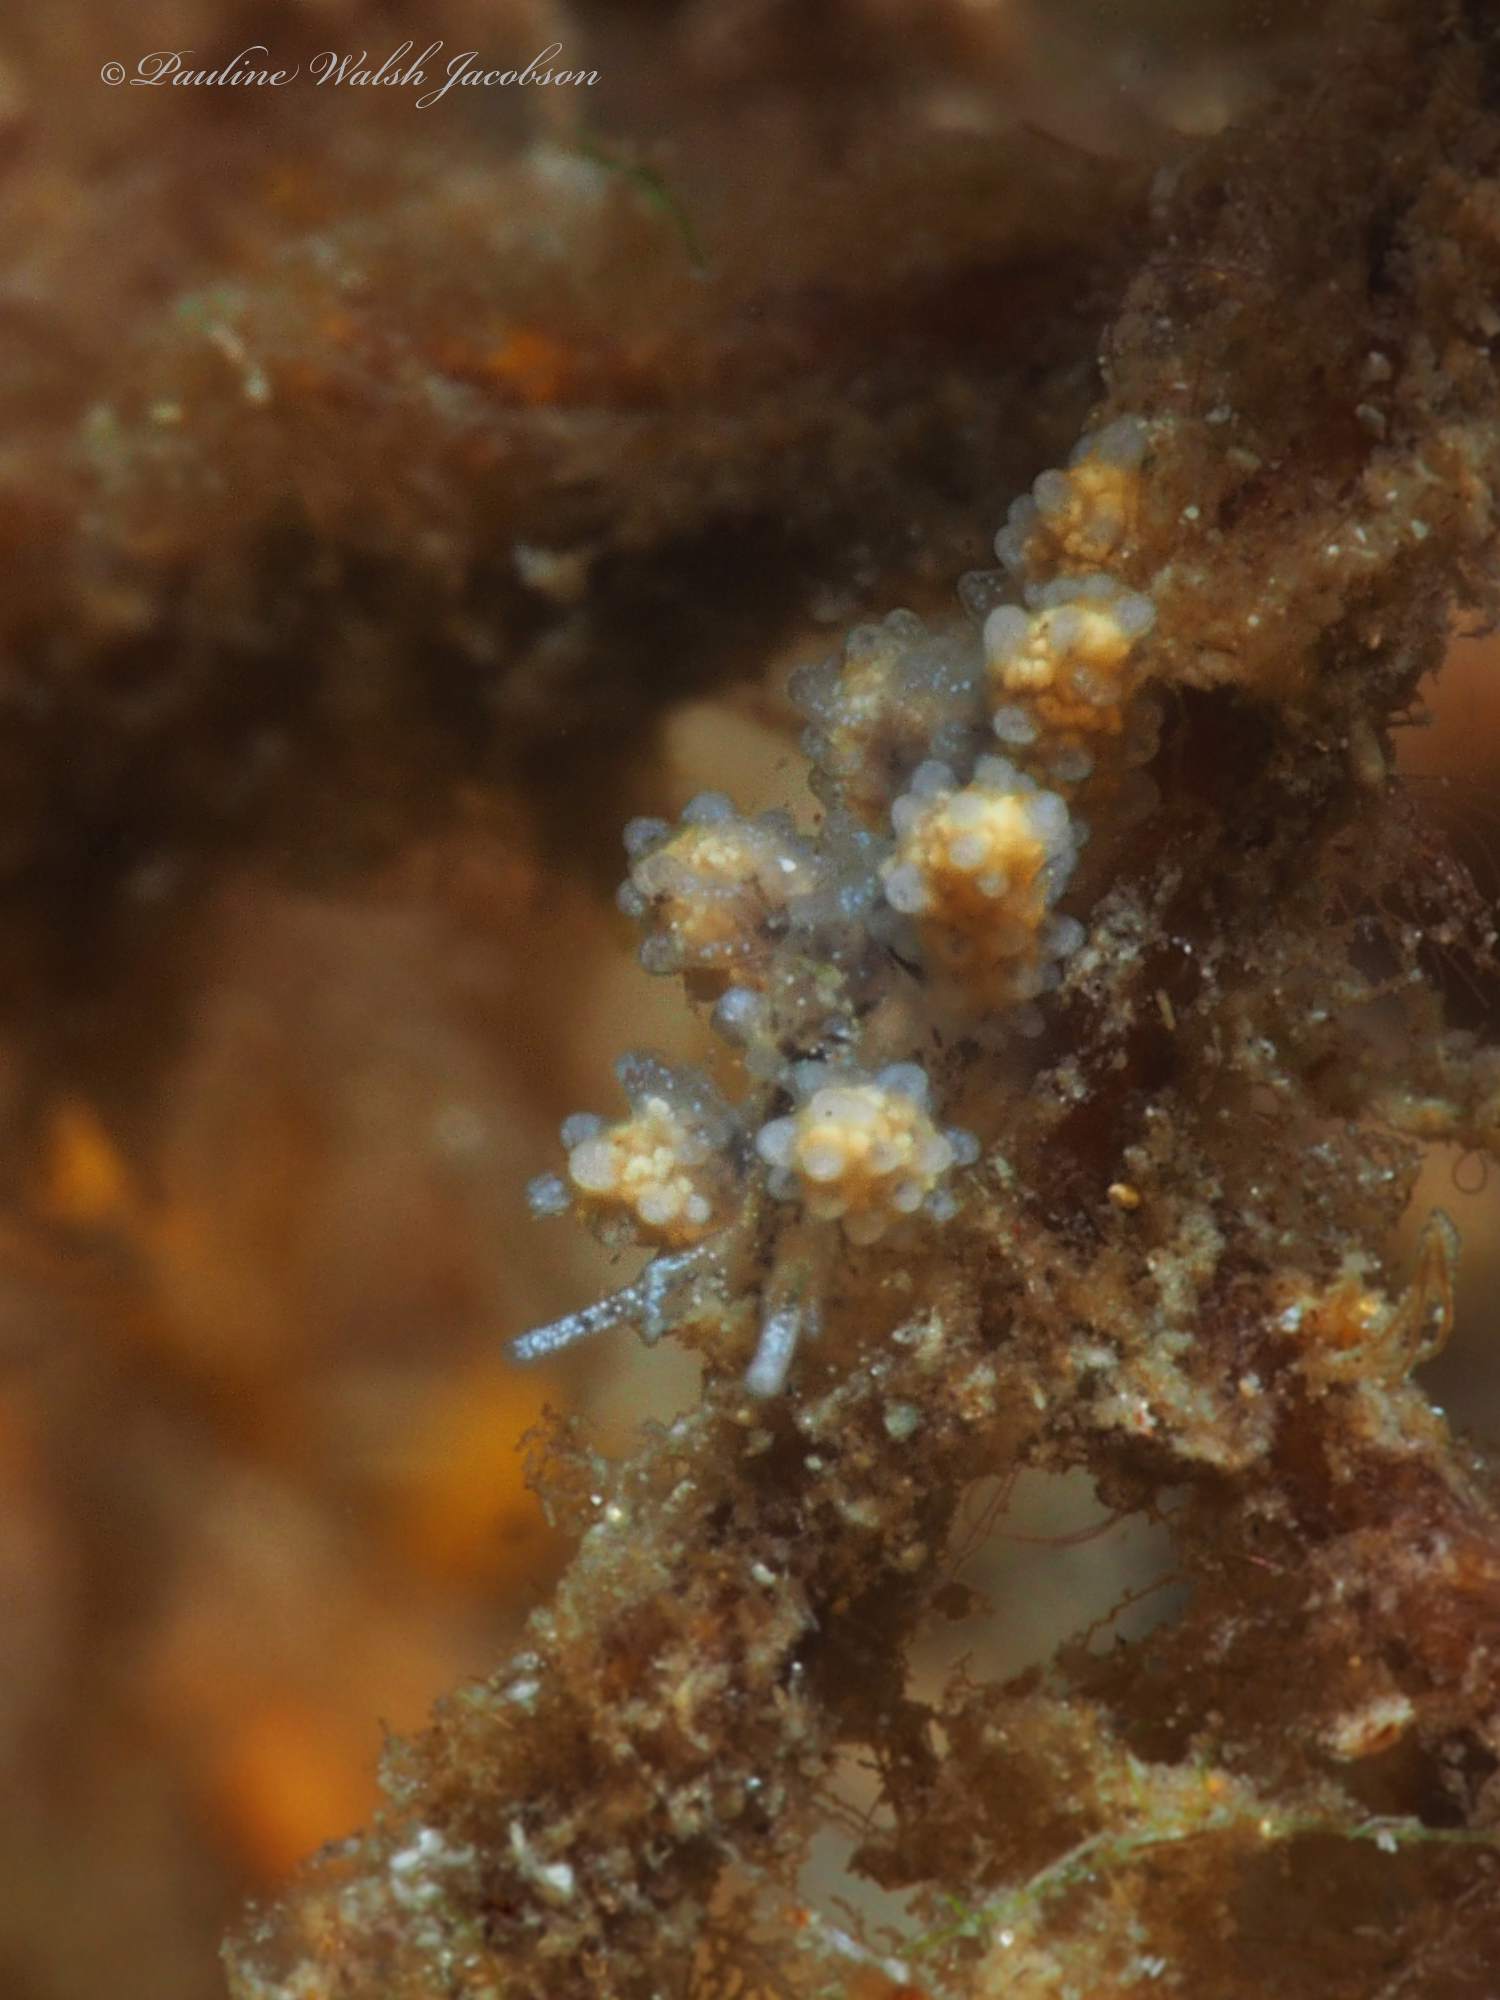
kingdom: Animalia
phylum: Mollusca
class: Gastropoda
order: Nudibranchia
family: Dotidae
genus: Doto
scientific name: Doto chica
